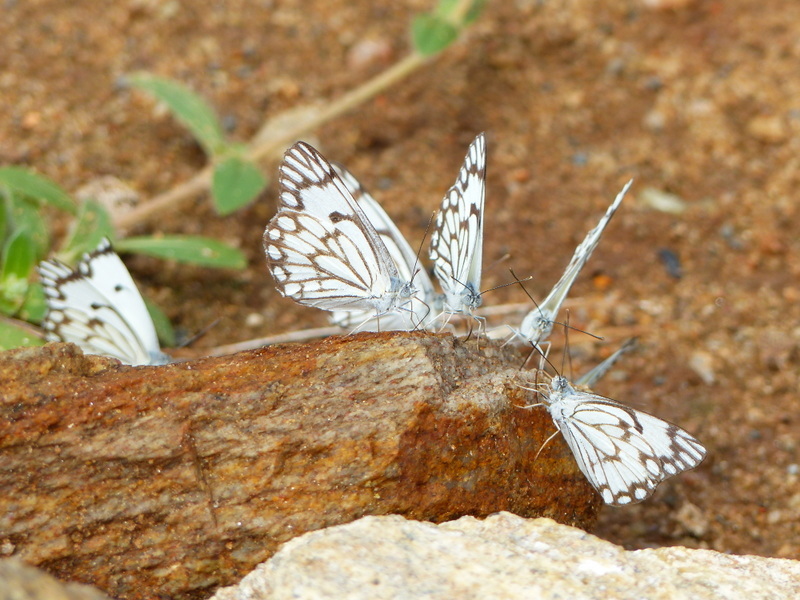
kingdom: Animalia
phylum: Arthropoda
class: Insecta
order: Lepidoptera
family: Pieridae
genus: Belenois
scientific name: Belenois aurota
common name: Brown-veined white
